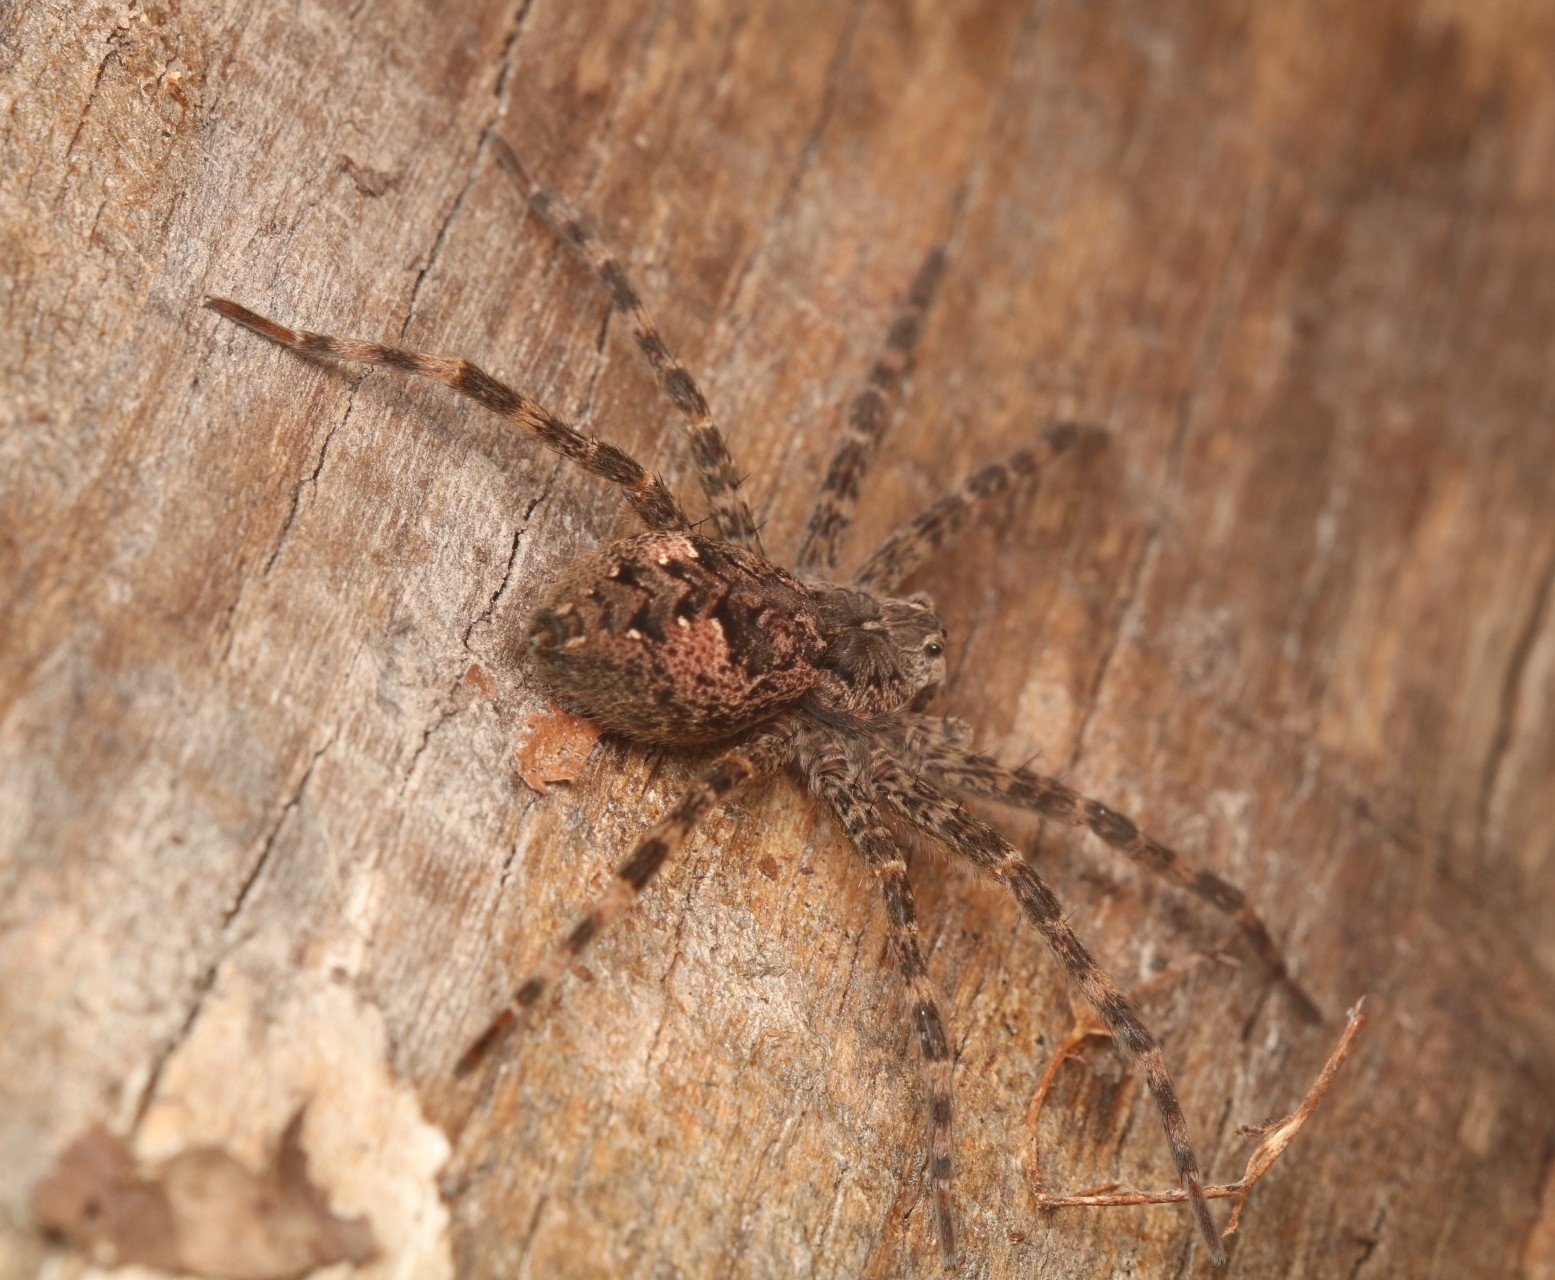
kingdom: Animalia
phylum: Arthropoda
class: Arachnida
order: Araneae
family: Pisauridae
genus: Dolomedes
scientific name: Dolomedes tenebrosus
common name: Dark fishing spider
